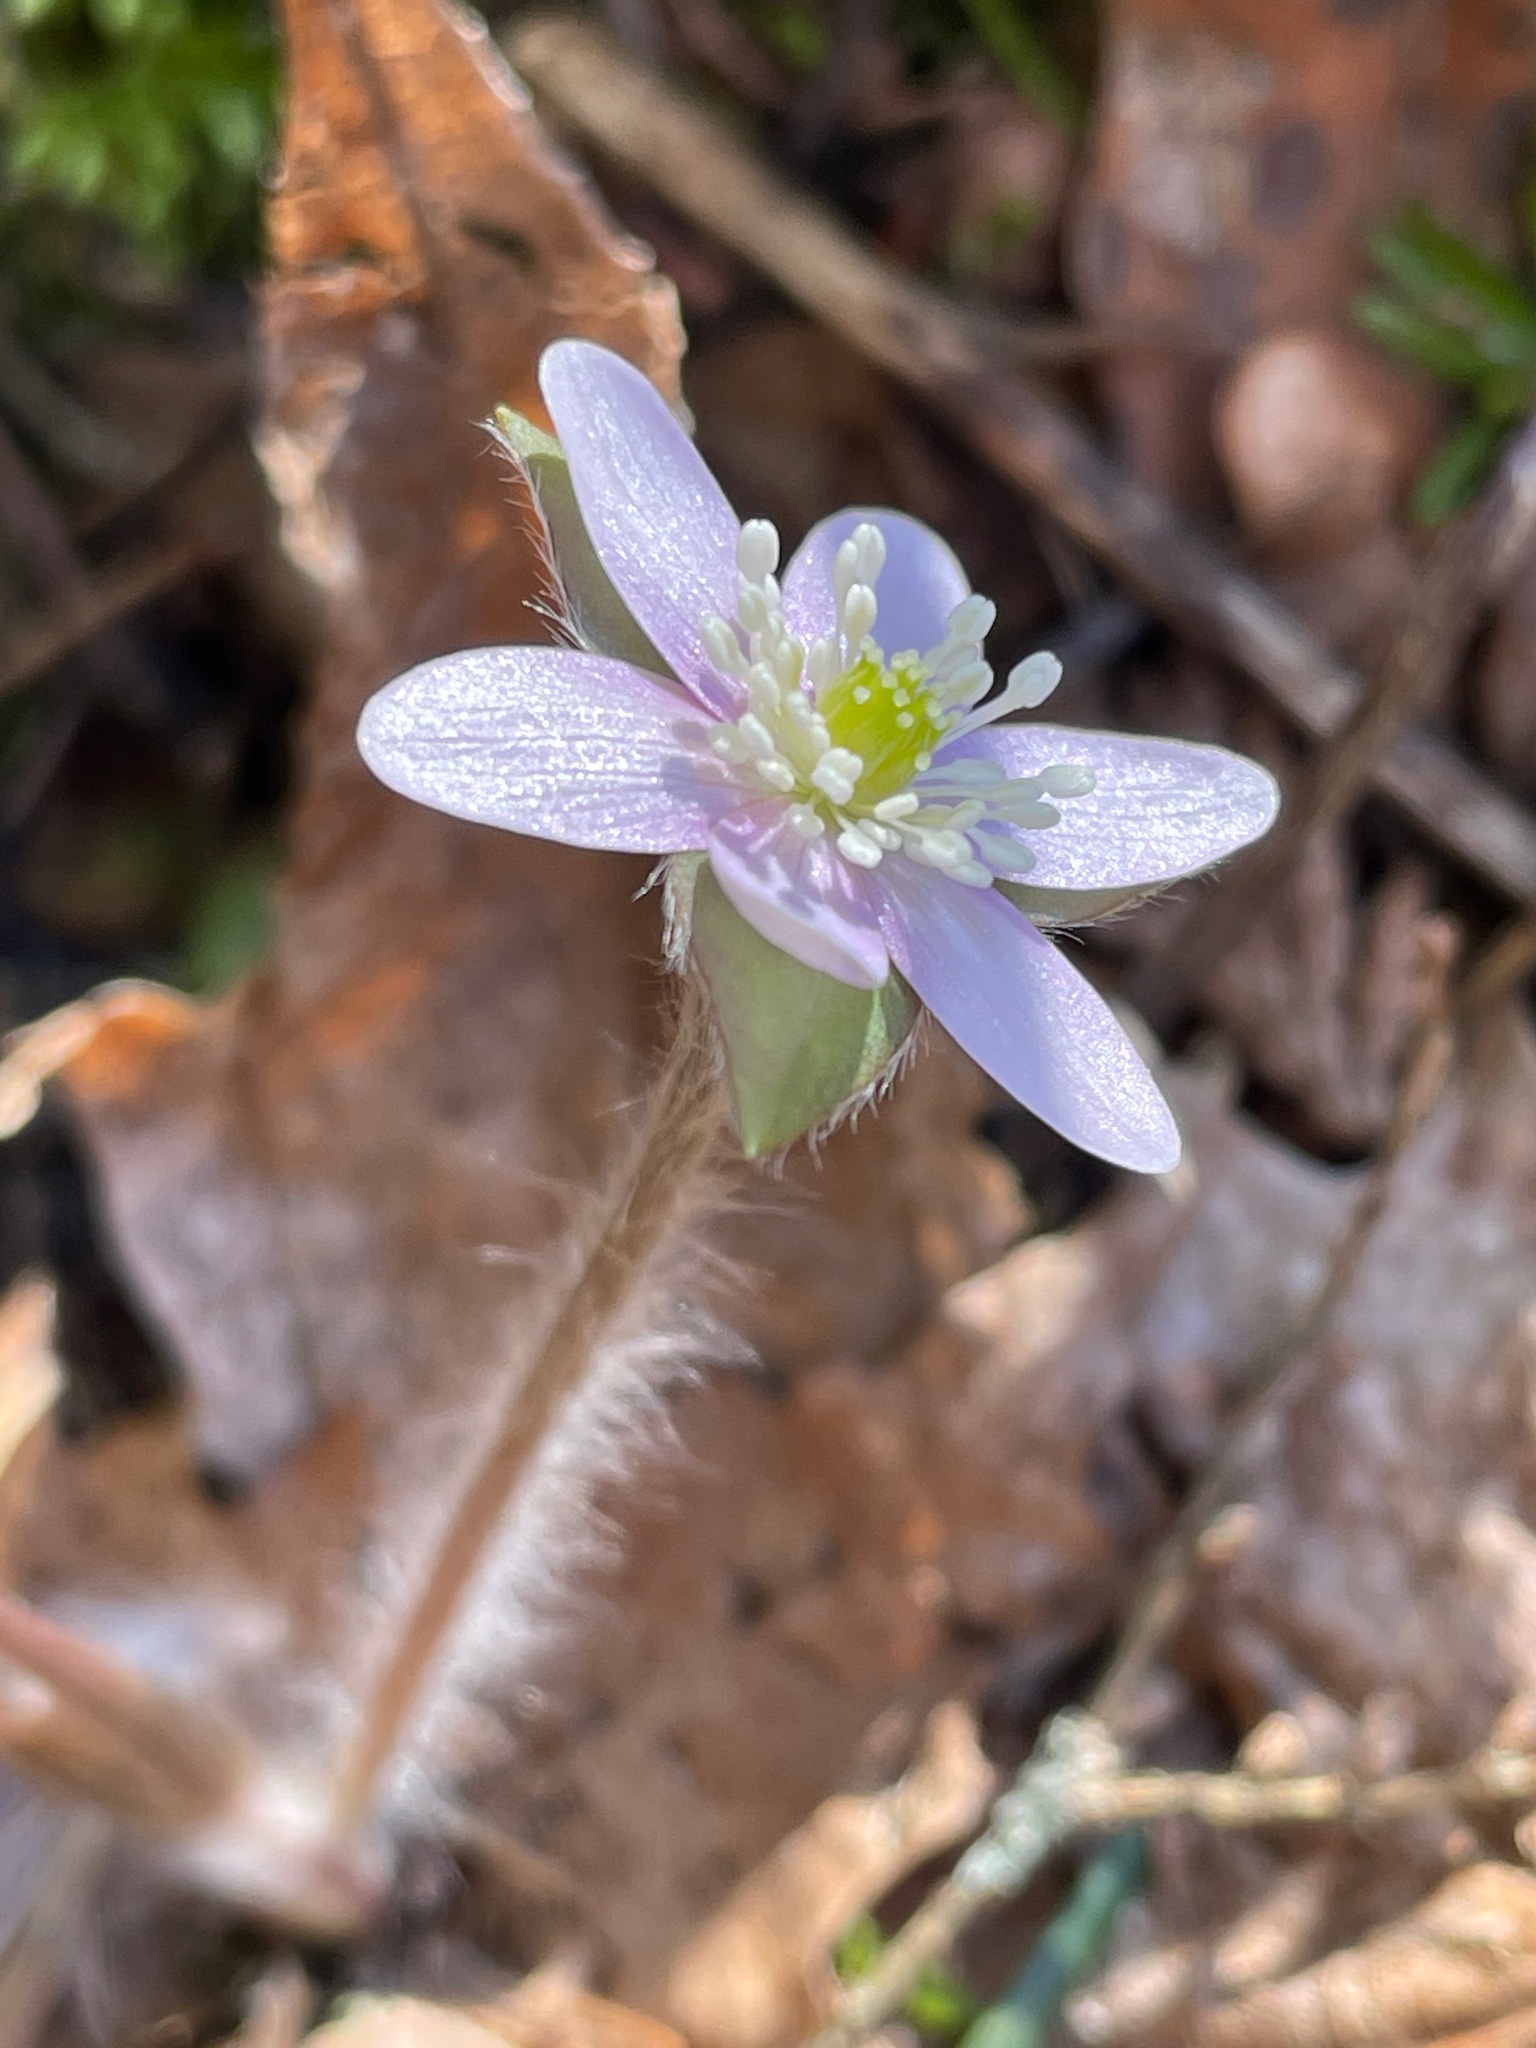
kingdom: Plantae
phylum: Tracheophyta
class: Magnoliopsida
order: Ranunculales
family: Ranunculaceae
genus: Hepatica
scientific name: Hepatica acutiloba
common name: Sharp-lobed hepatica
